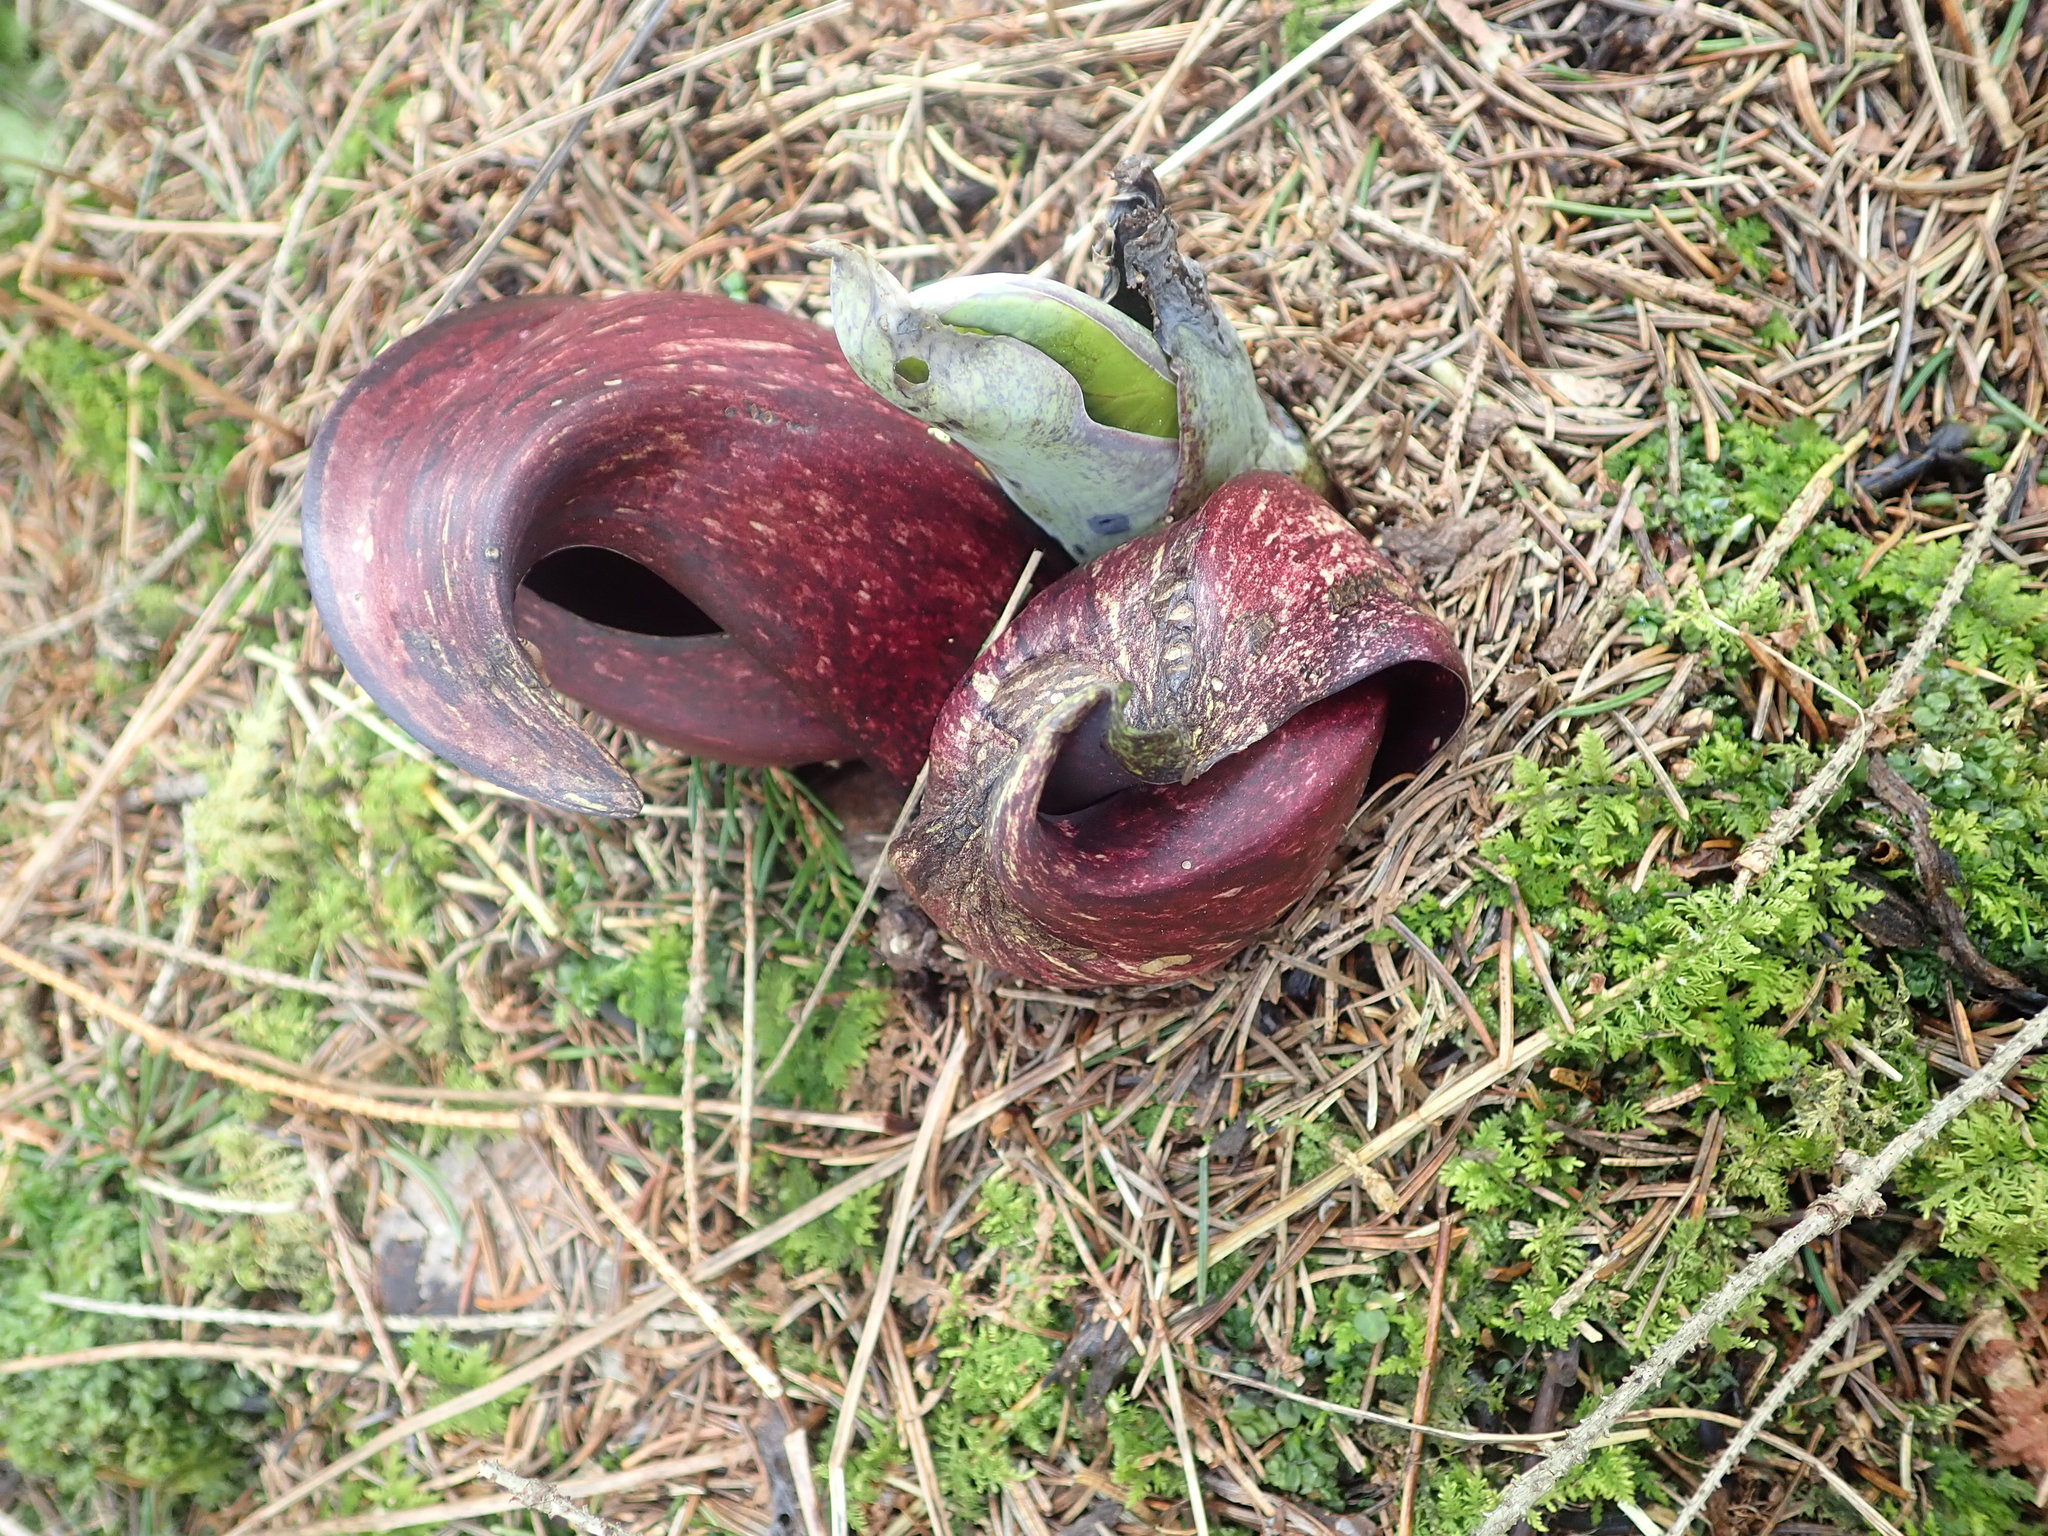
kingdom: Plantae
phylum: Tracheophyta
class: Liliopsida
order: Alismatales
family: Araceae
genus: Symplocarpus
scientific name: Symplocarpus foetidus
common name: Eastern skunk cabbage
